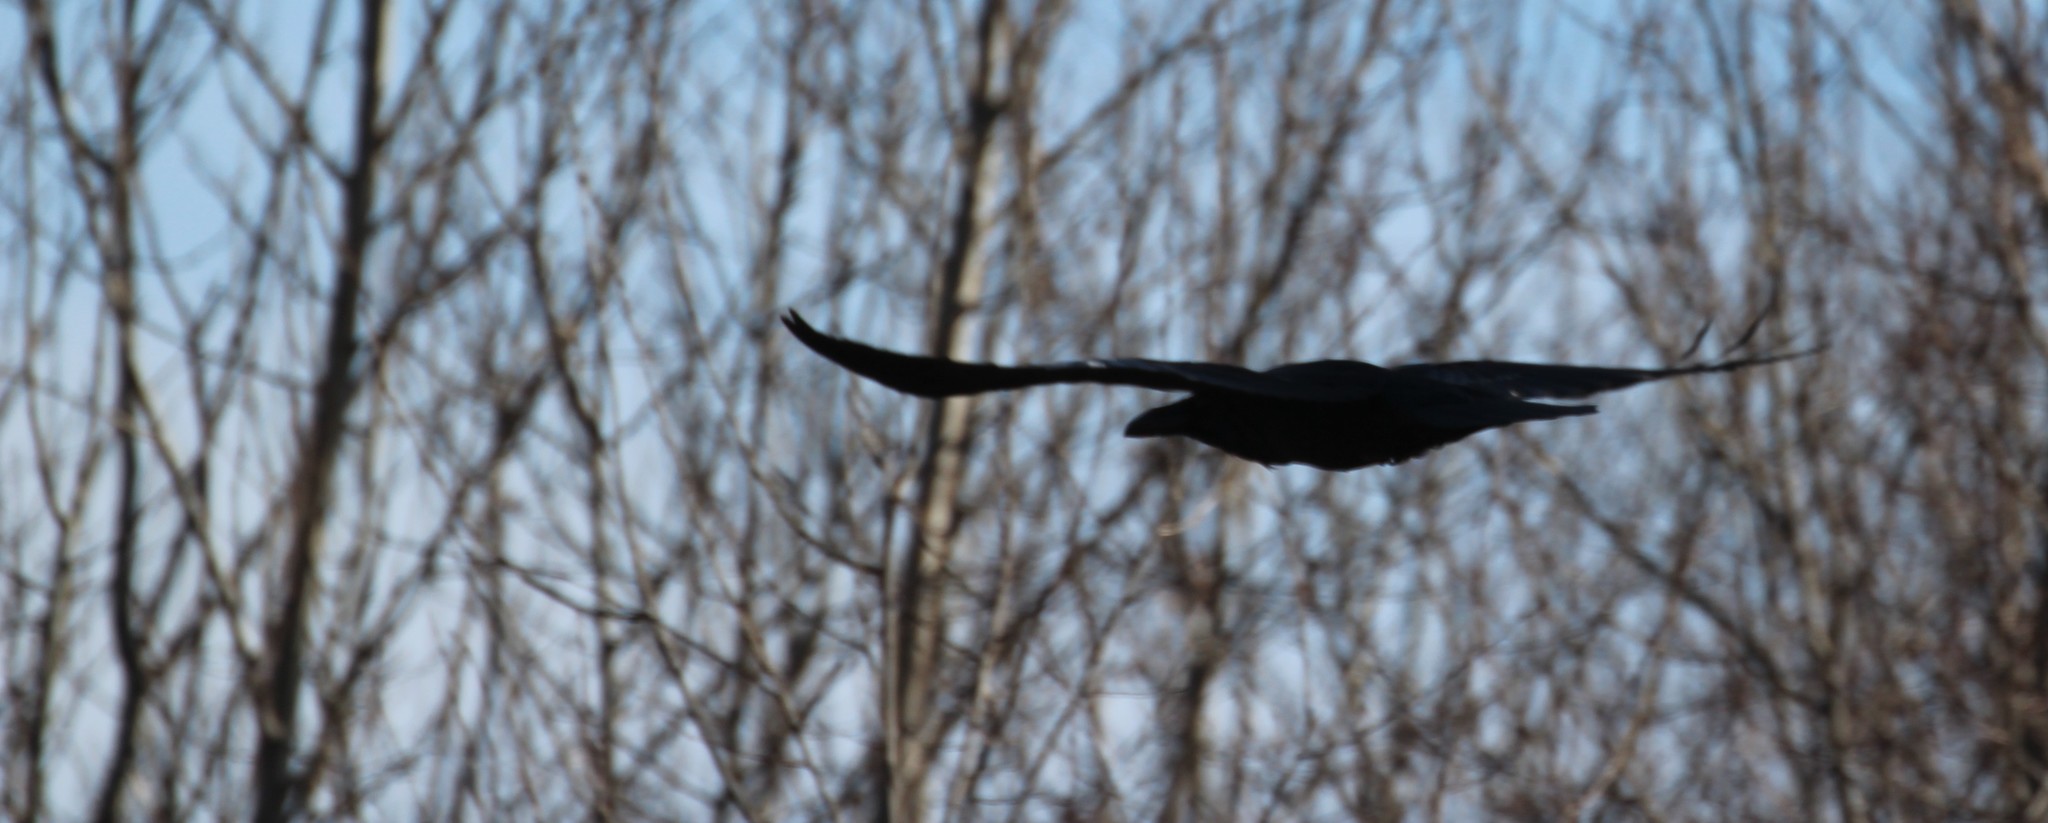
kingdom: Animalia
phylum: Chordata
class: Aves
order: Passeriformes
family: Corvidae
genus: Corvus
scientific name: Corvus corax
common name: Common raven
